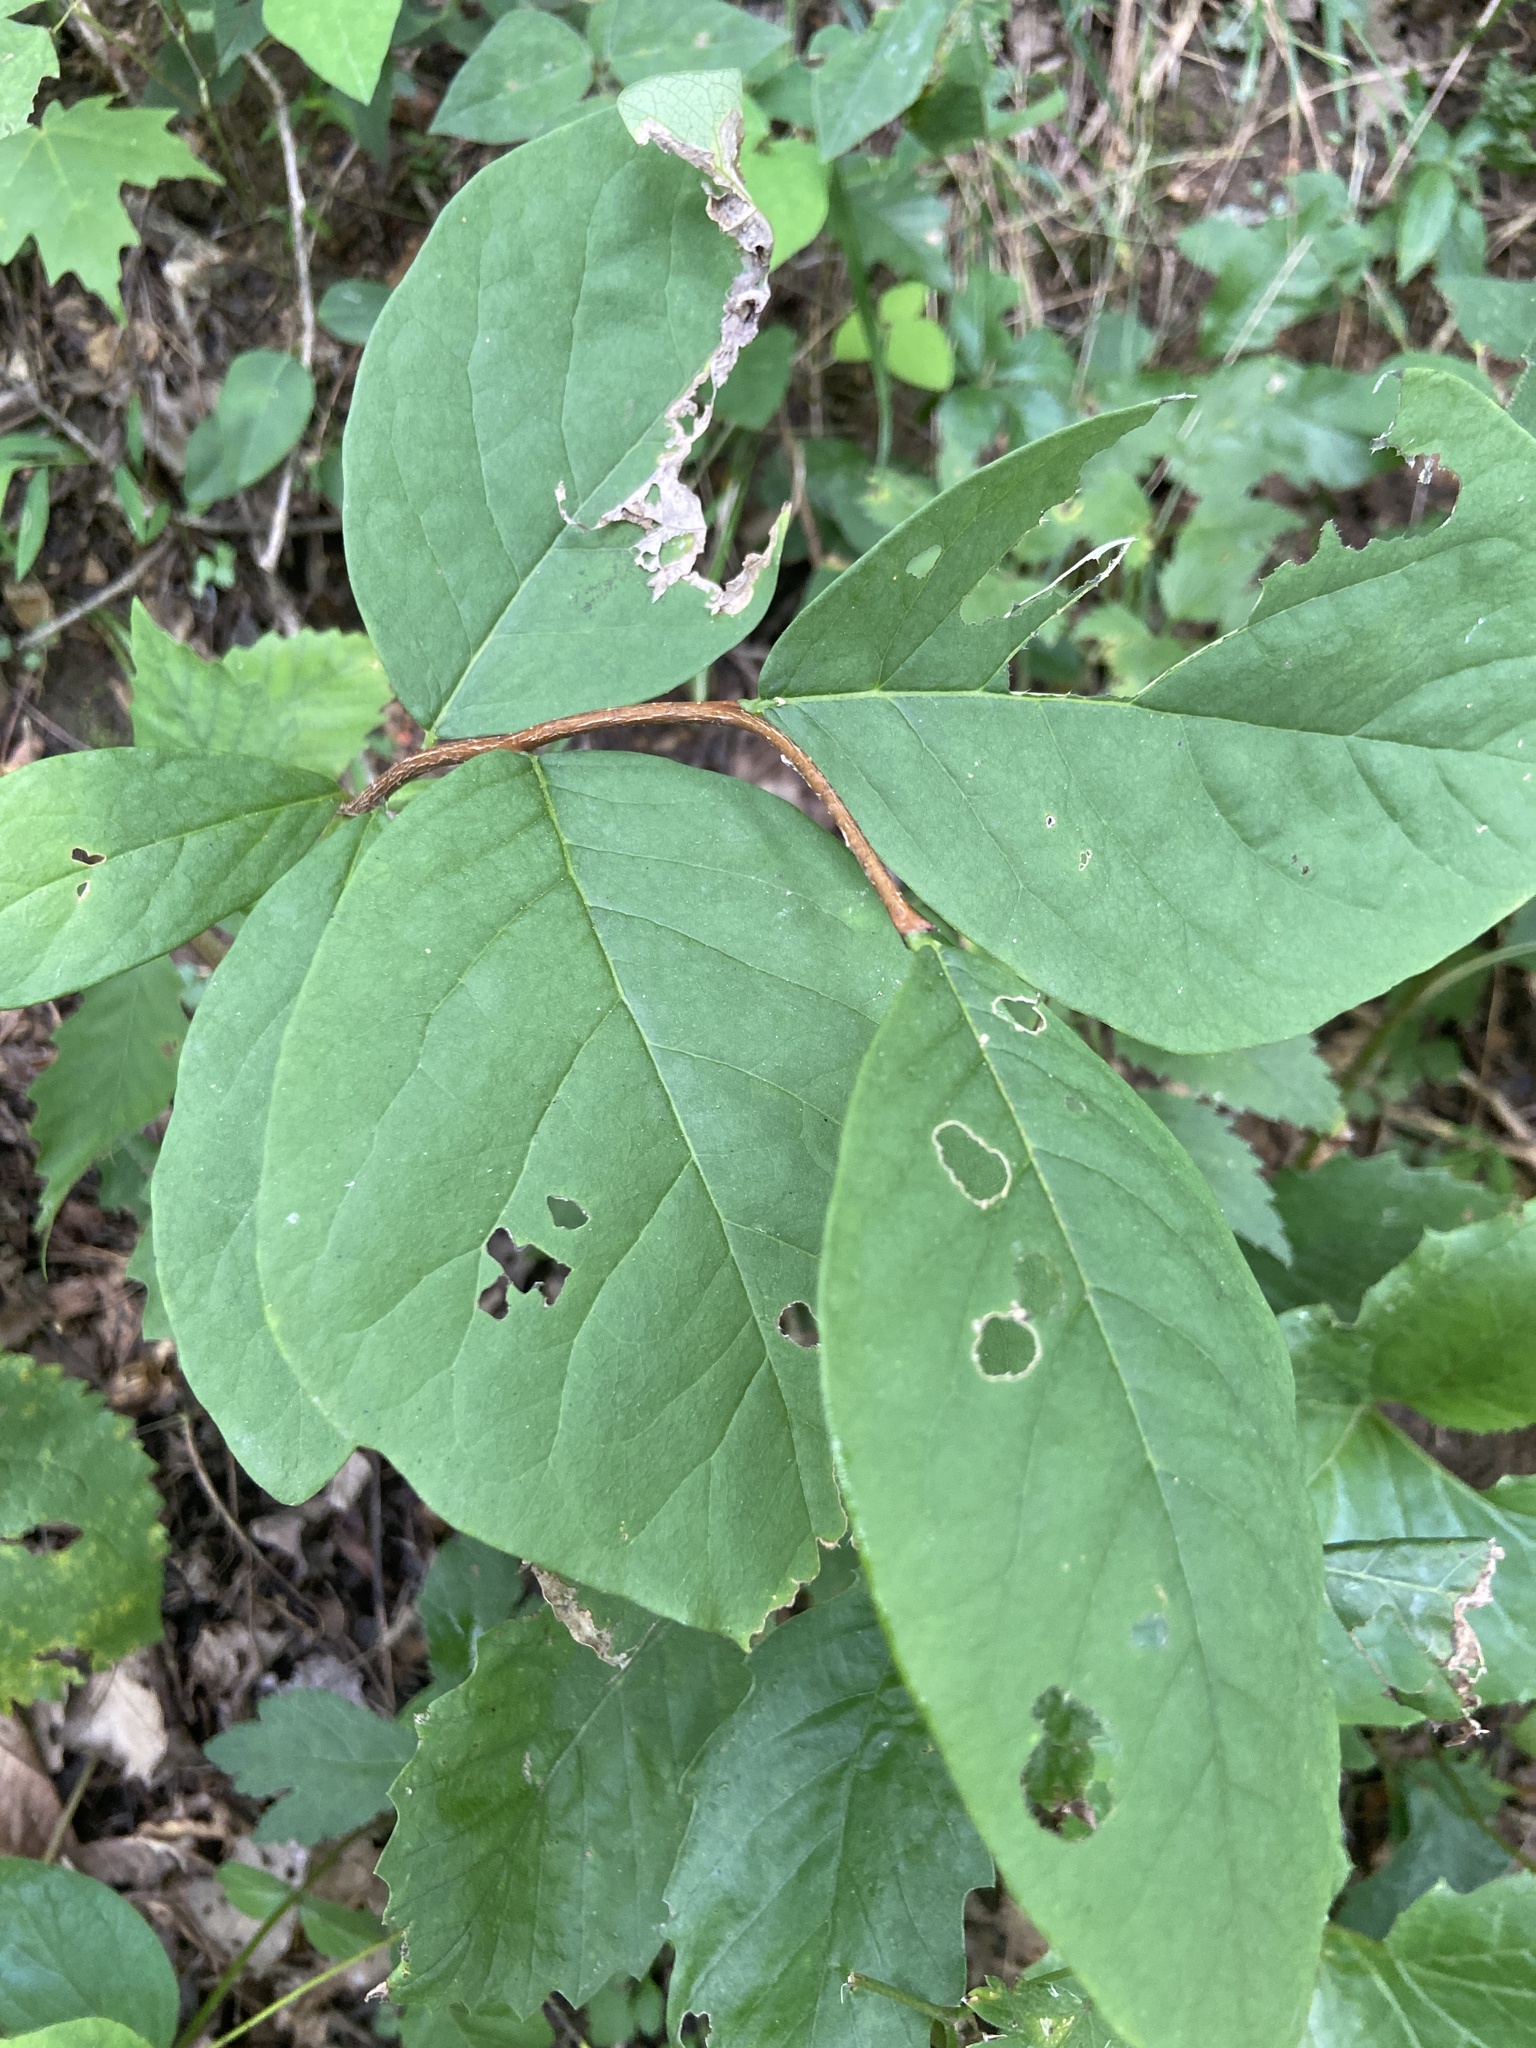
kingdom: Plantae
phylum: Tracheophyta
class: Magnoliopsida
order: Malvales
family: Thymelaeaceae
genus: Dirca
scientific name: Dirca palustris
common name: Leatherwood
